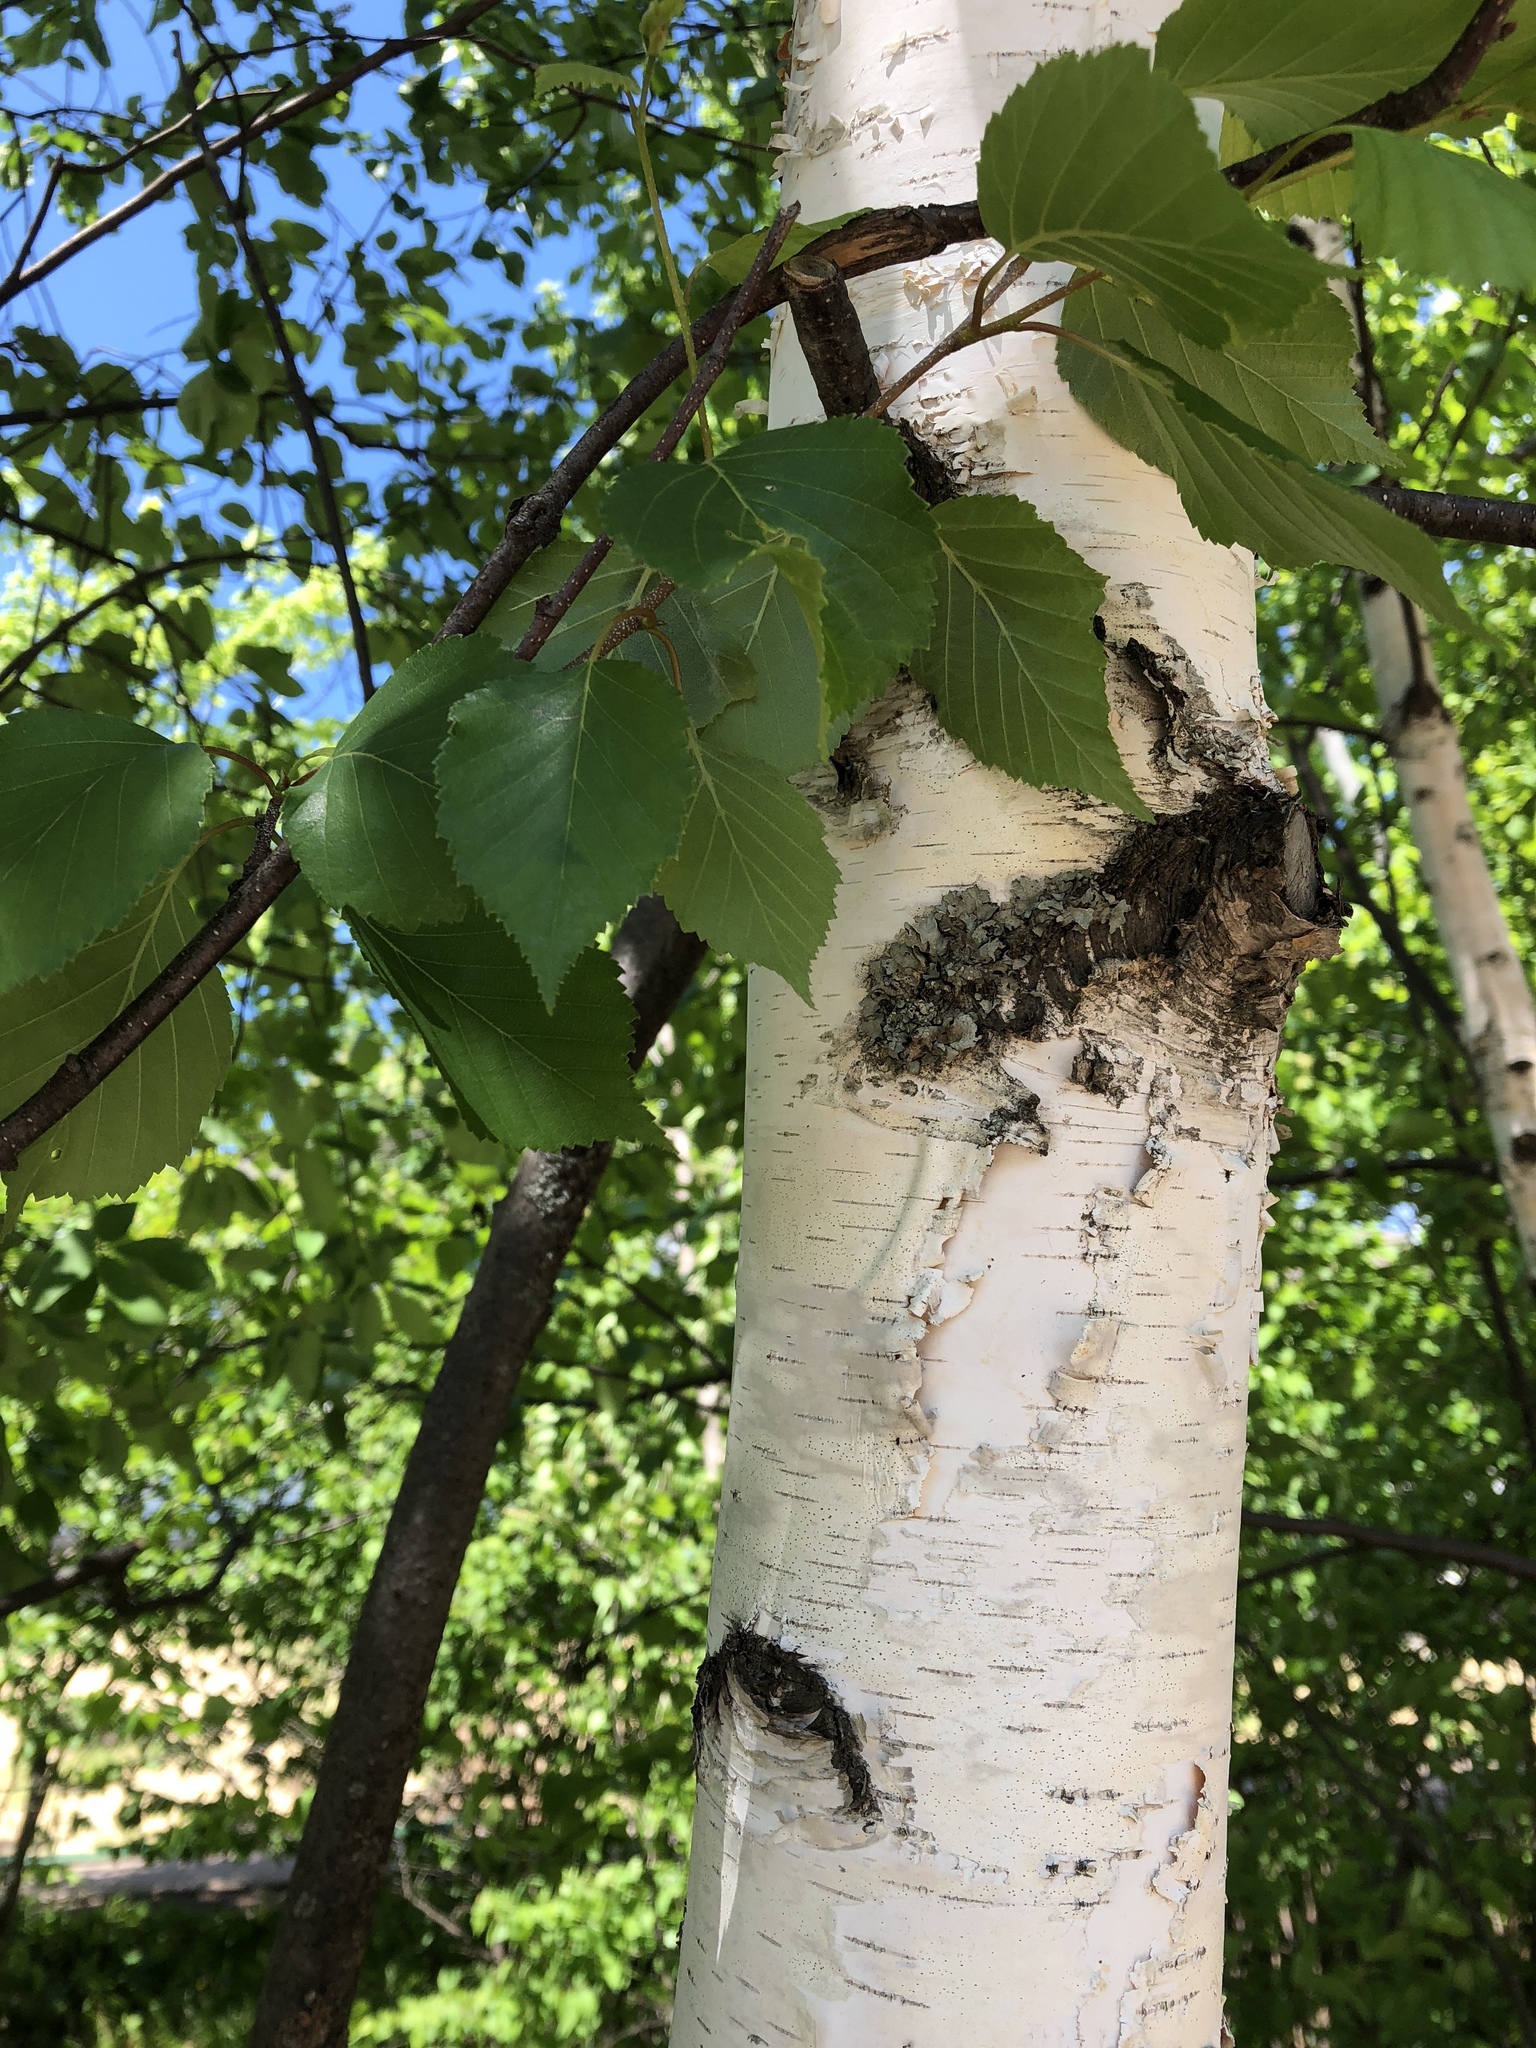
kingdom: Plantae
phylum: Tracheophyta
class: Magnoliopsida
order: Fagales
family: Betulaceae
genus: Betula
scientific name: Betula papyrifera
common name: Paper birch
